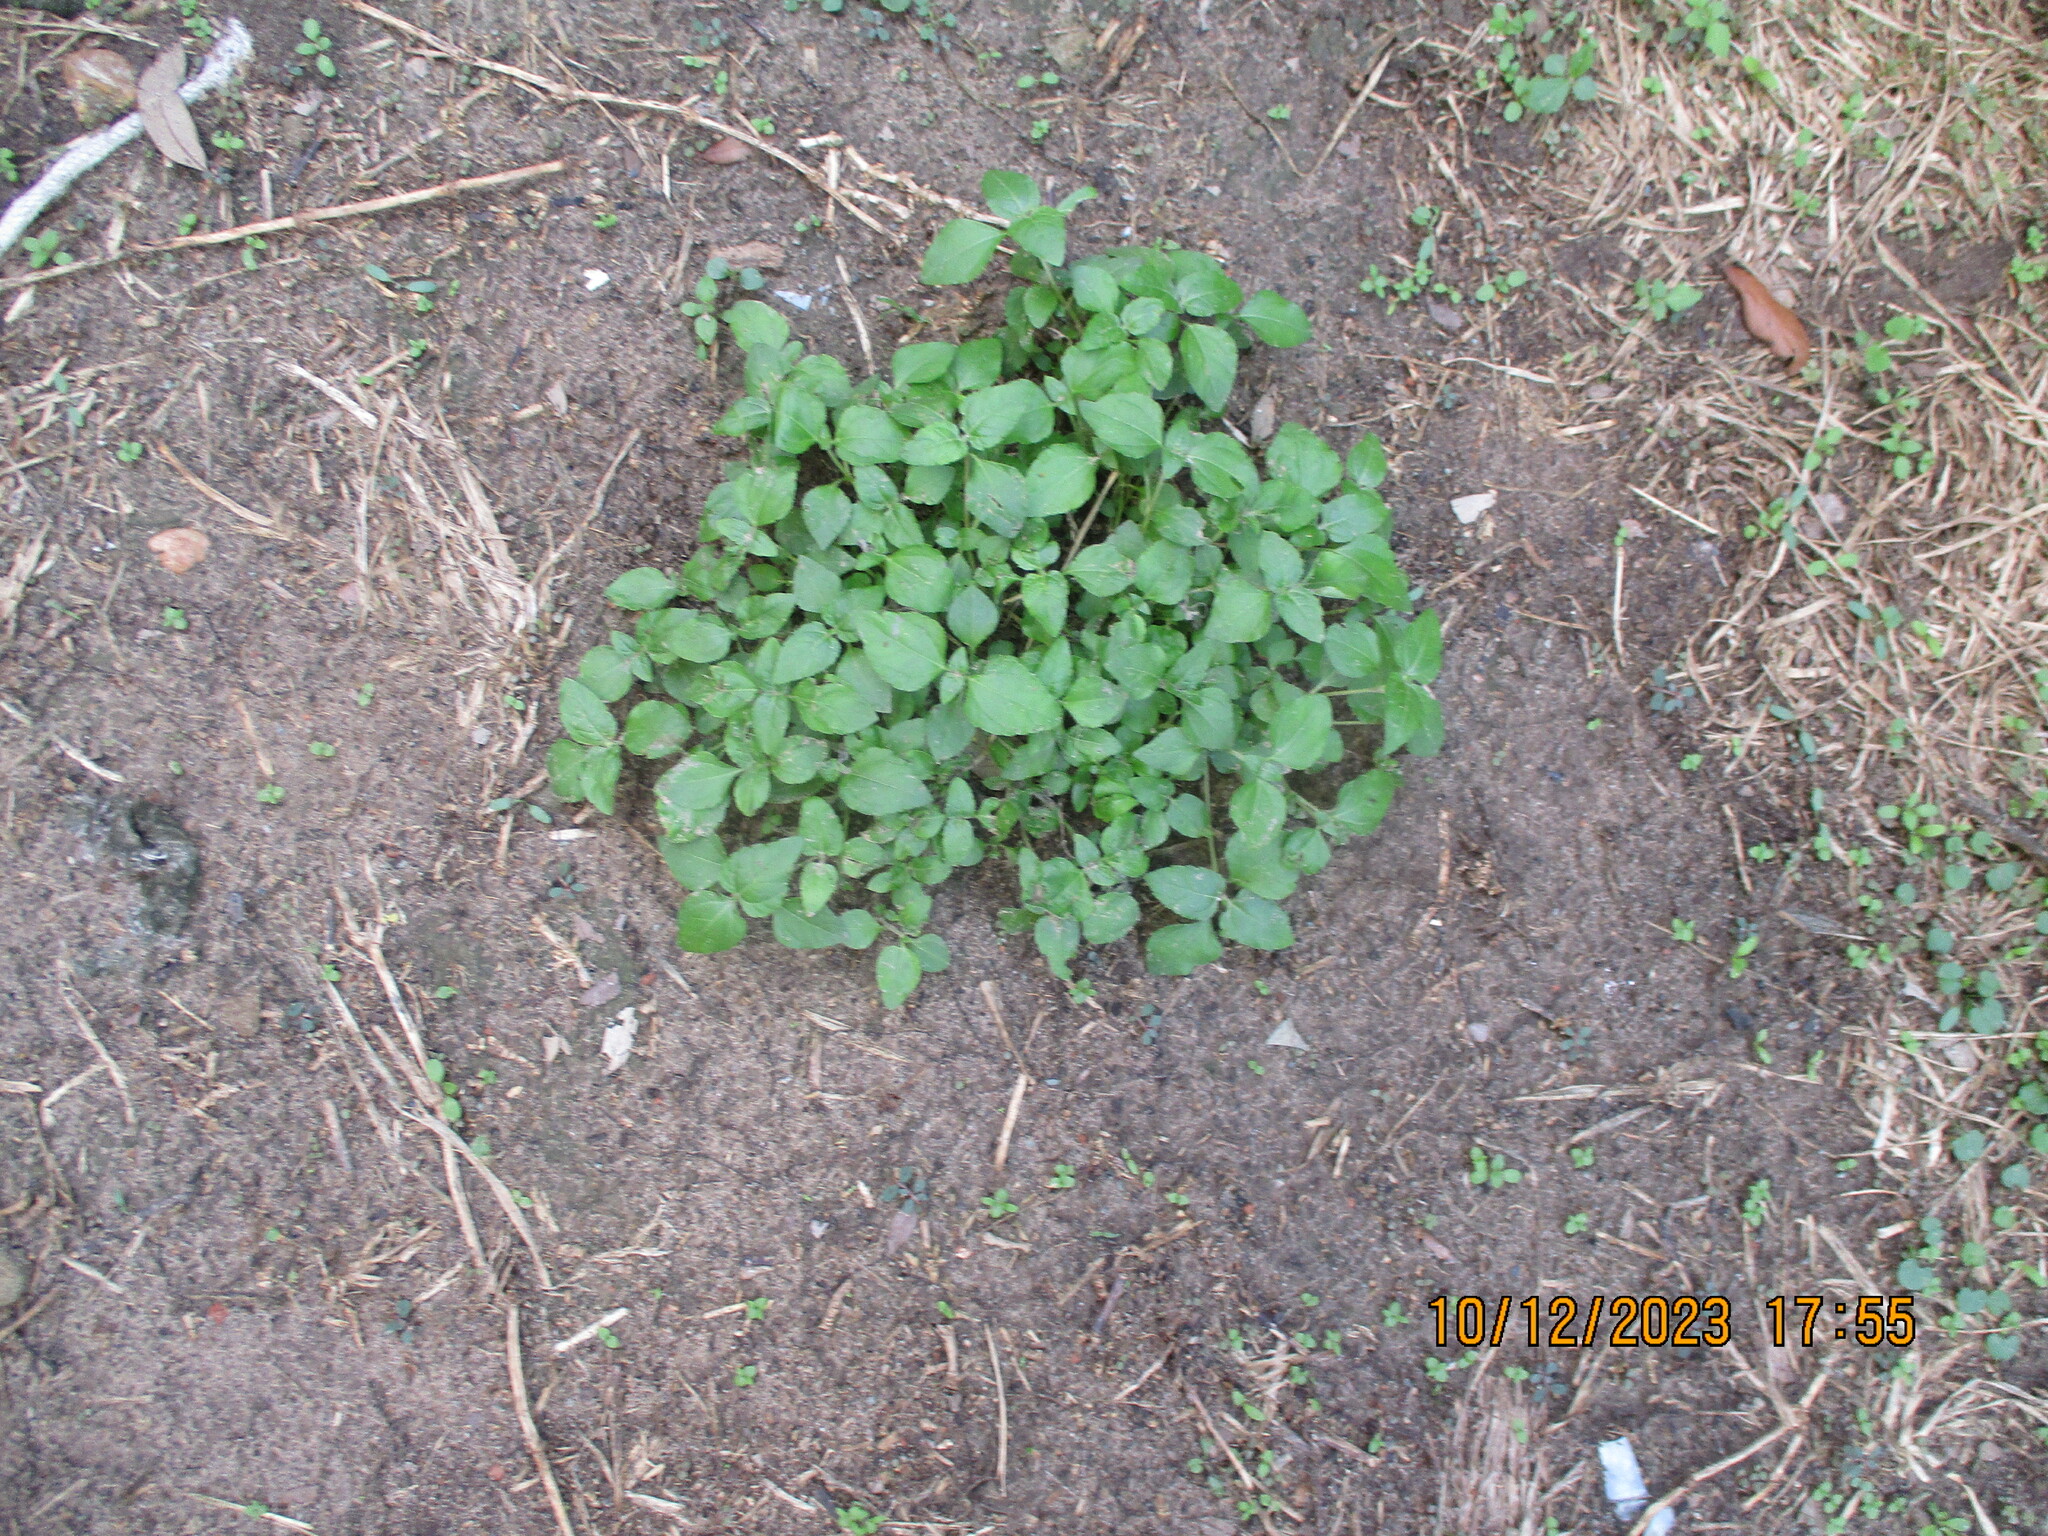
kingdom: Plantae
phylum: Tracheophyta
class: Magnoliopsida
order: Asterales
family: Asteraceae
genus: Calyptocarpus
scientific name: Calyptocarpus vialis
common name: Straggler daisy
